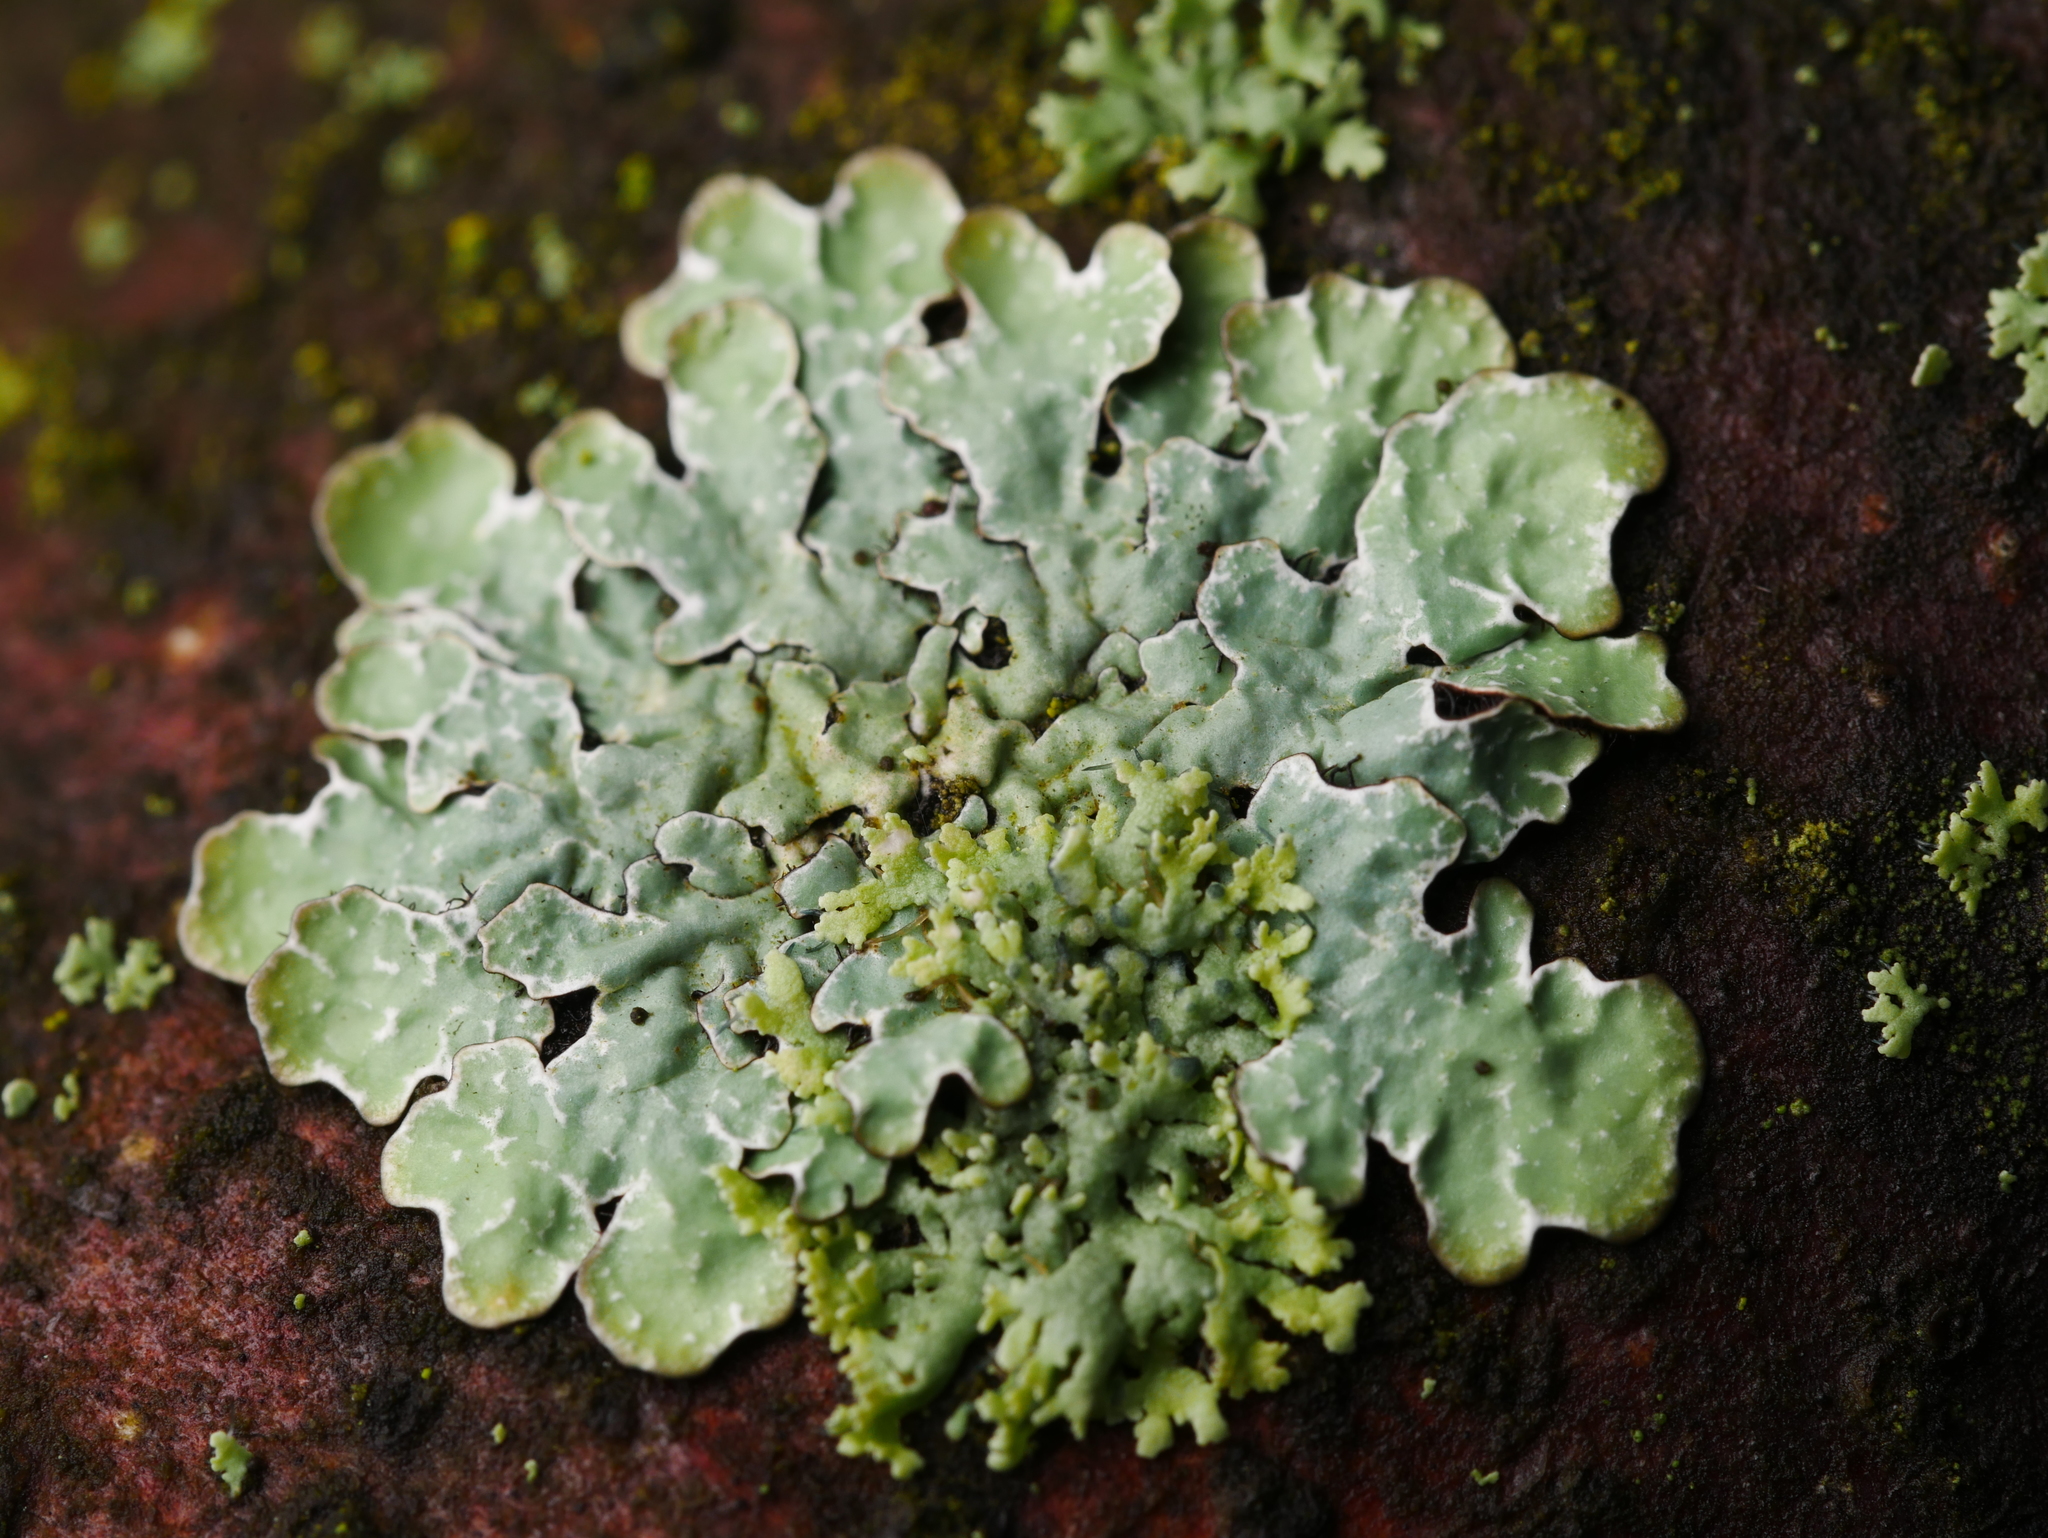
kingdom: Fungi
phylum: Ascomycota
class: Lecanoromycetes
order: Lecanorales
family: Parmeliaceae
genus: Parmelia
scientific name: Parmelia sulcata
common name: Netted shield lichen
